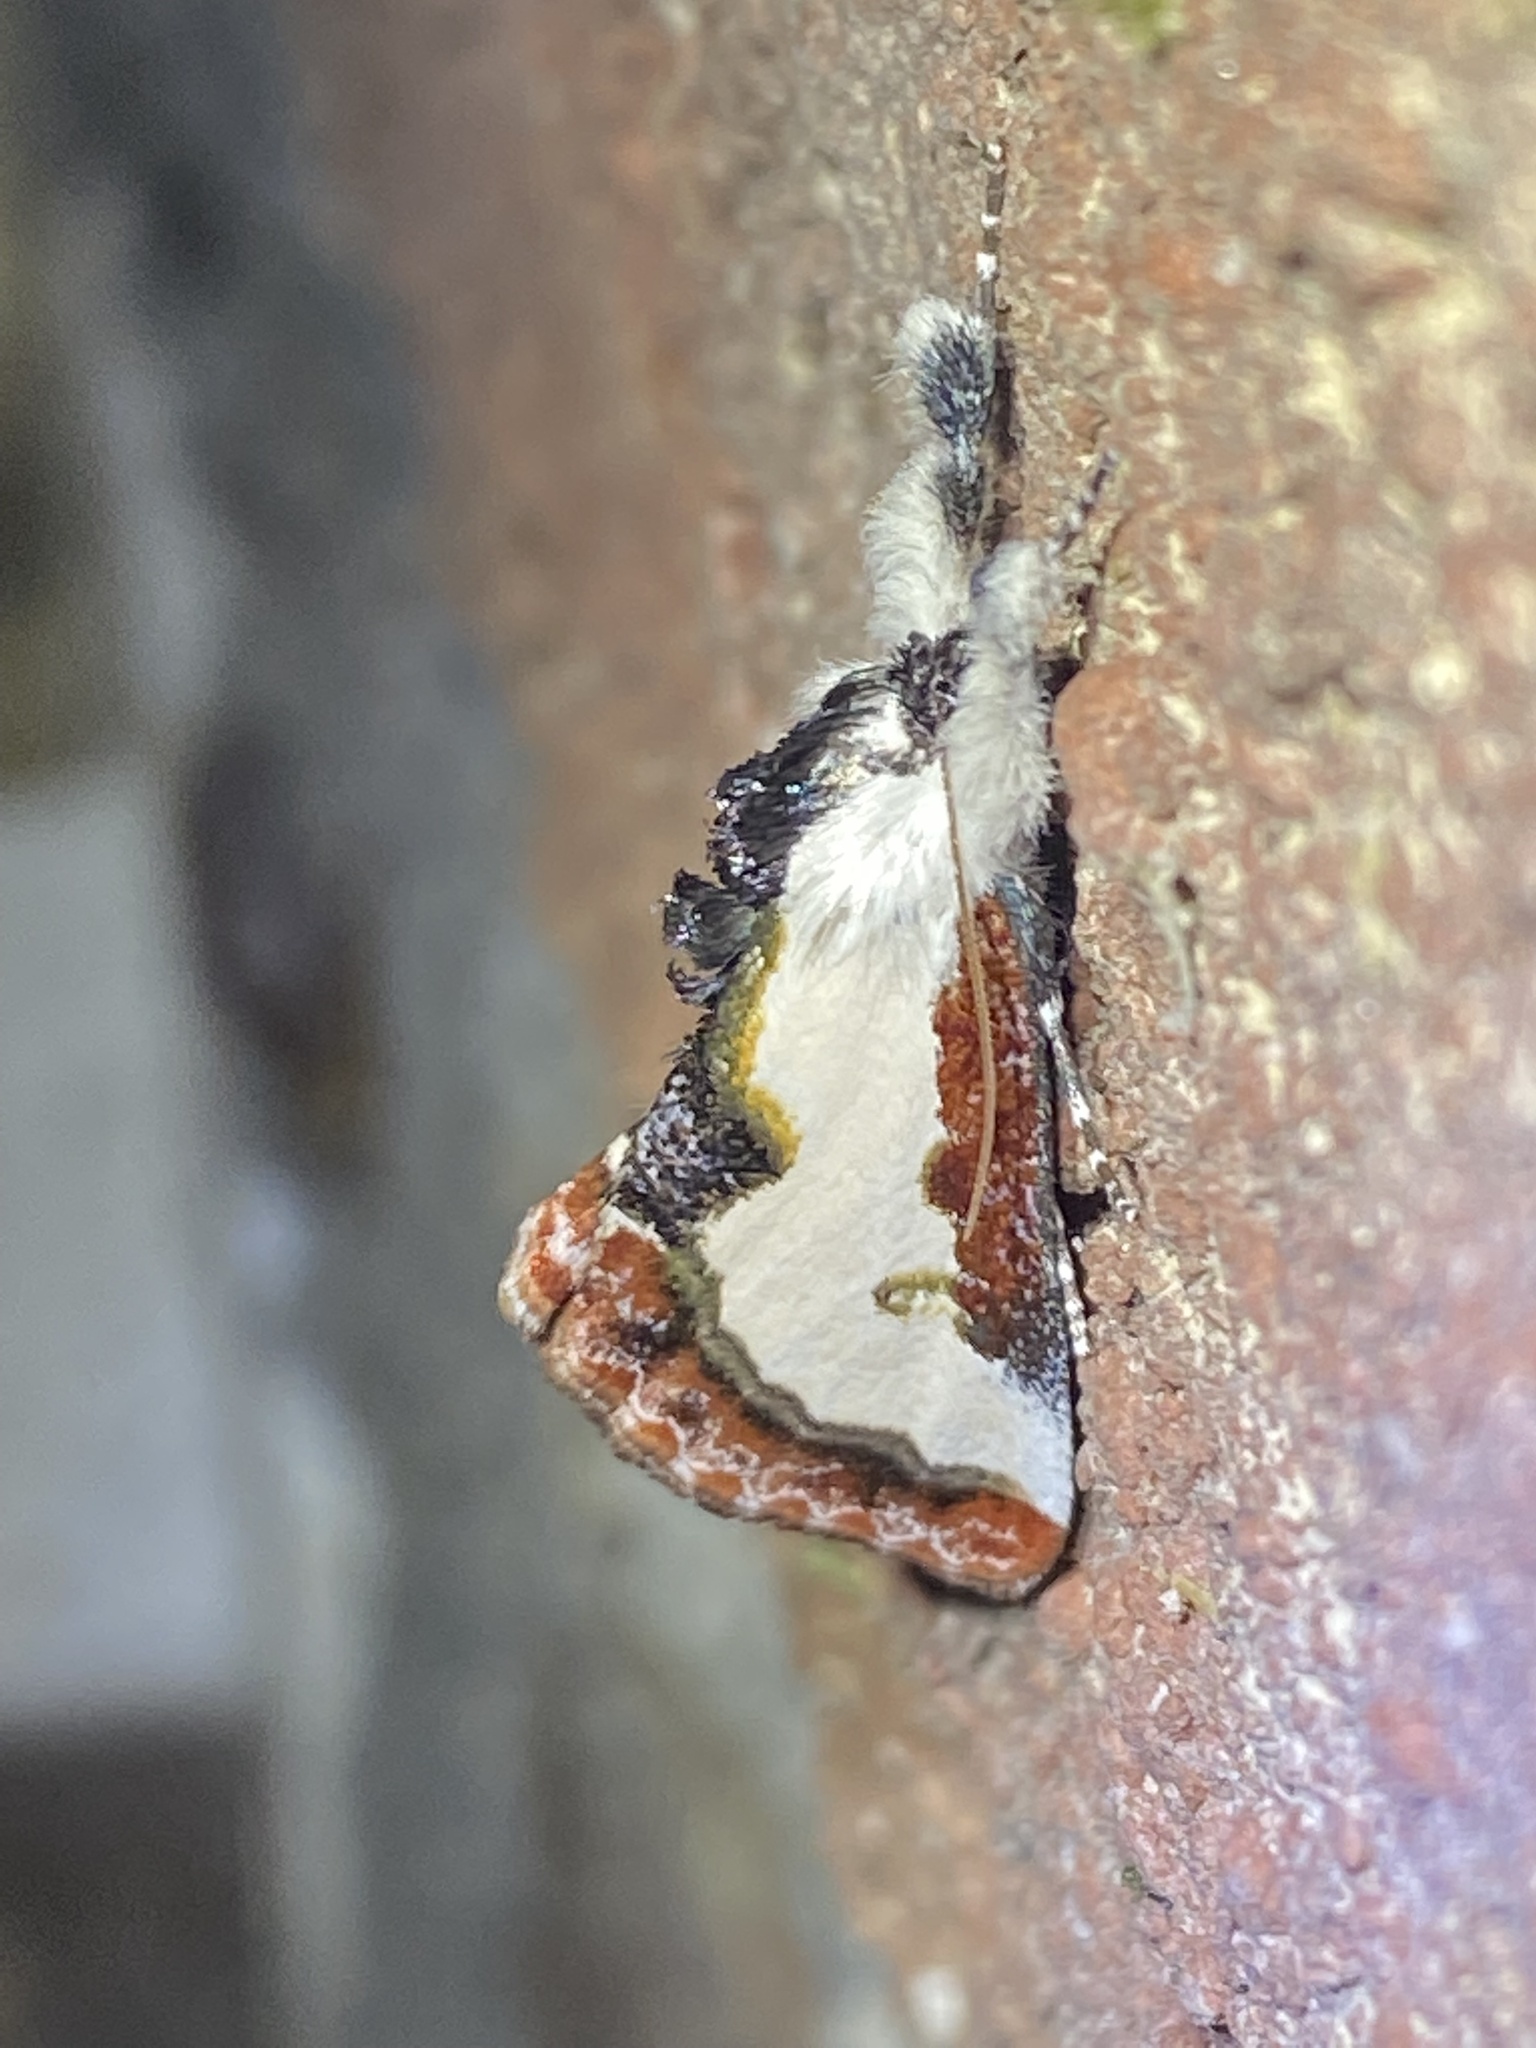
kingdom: Animalia
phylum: Arthropoda
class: Insecta
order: Lepidoptera
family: Noctuidae
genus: Eudryas
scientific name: Eudryas unio
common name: Pearly wood-nymph
